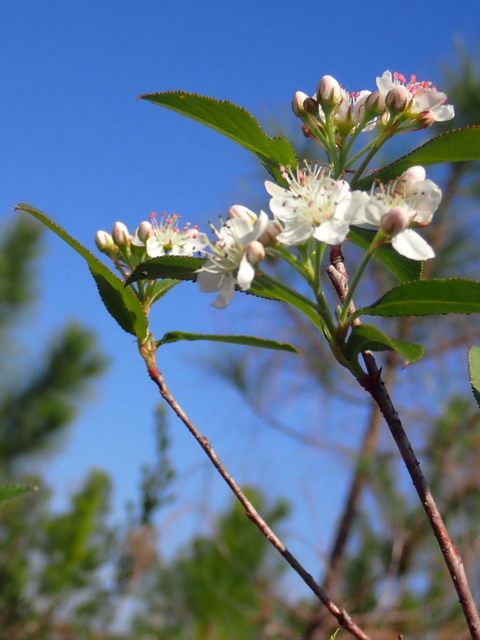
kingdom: Plantae
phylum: Tracheophyta
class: Magnoliopsida
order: Rosales
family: Rosaceae
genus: Aronia
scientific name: Aronia arbutifolia
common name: Red chokeberry
